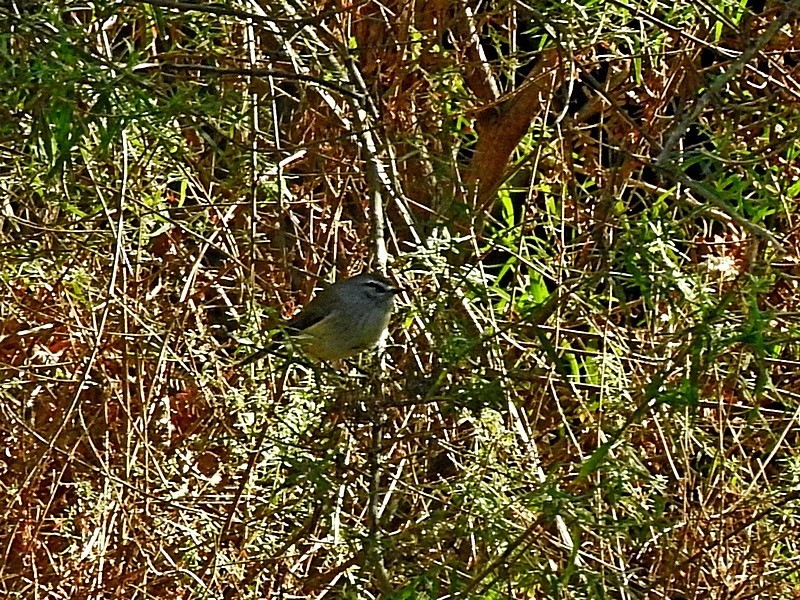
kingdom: Animalia
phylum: Chordata
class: Aves
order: Passeriformes
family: Acanthizidae
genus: Gerygone
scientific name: Gerygone mouki
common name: Brown gerygone
